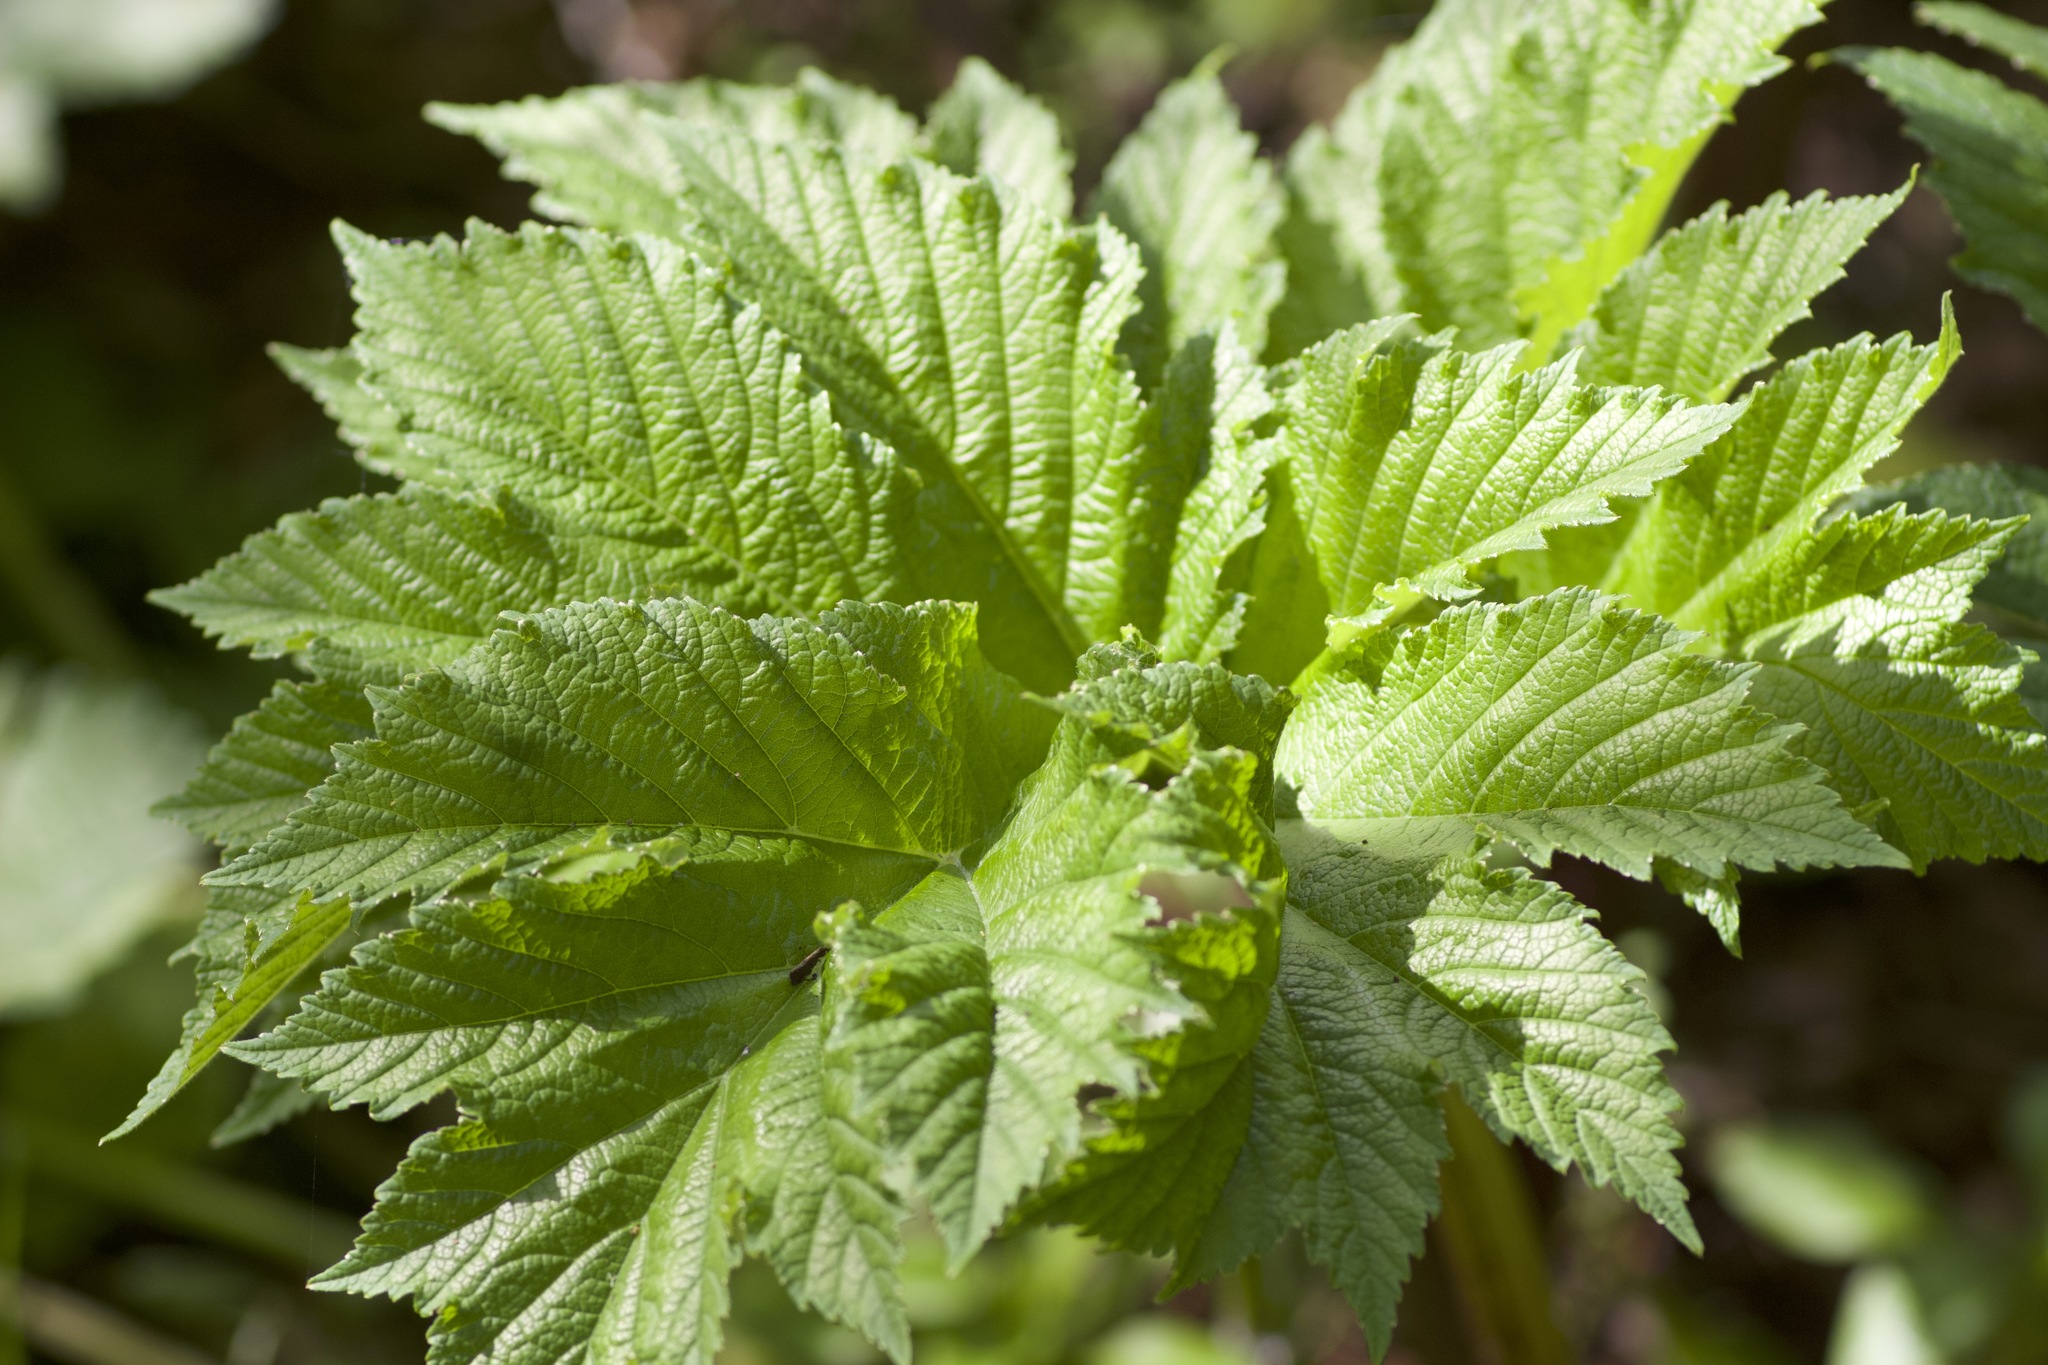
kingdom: Plantae
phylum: Tracheophyta
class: Magnoliopsida
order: Apiales
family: Apiaceae
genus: Heracleum
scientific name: Heracleum maximum
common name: American cow parsnip
